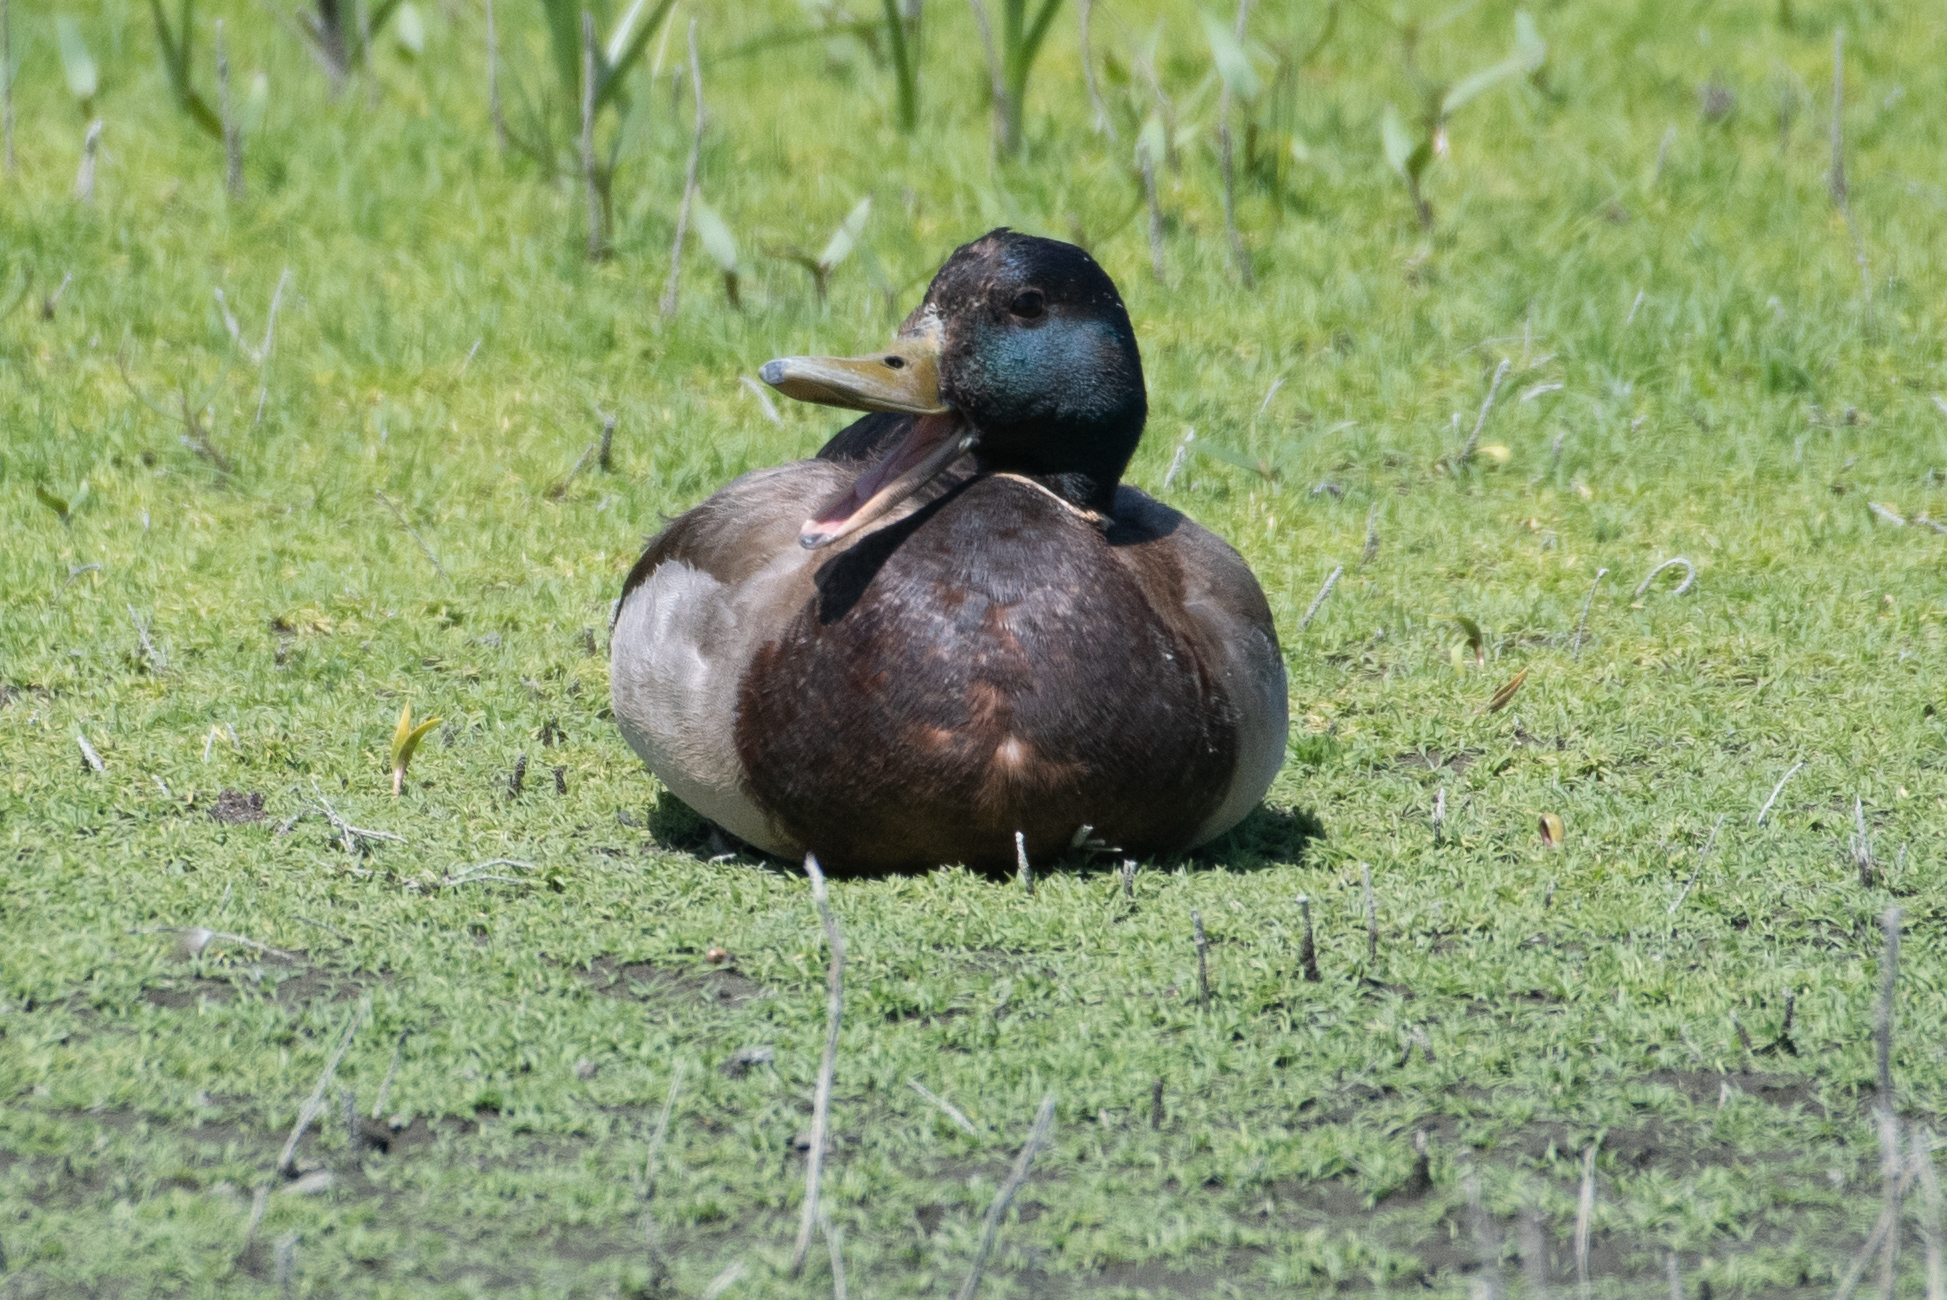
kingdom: Animalia
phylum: Chordata
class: Aves
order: Anseriformes
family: Anatidae
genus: Anas
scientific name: Anas platyrhynchos
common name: Mallard
